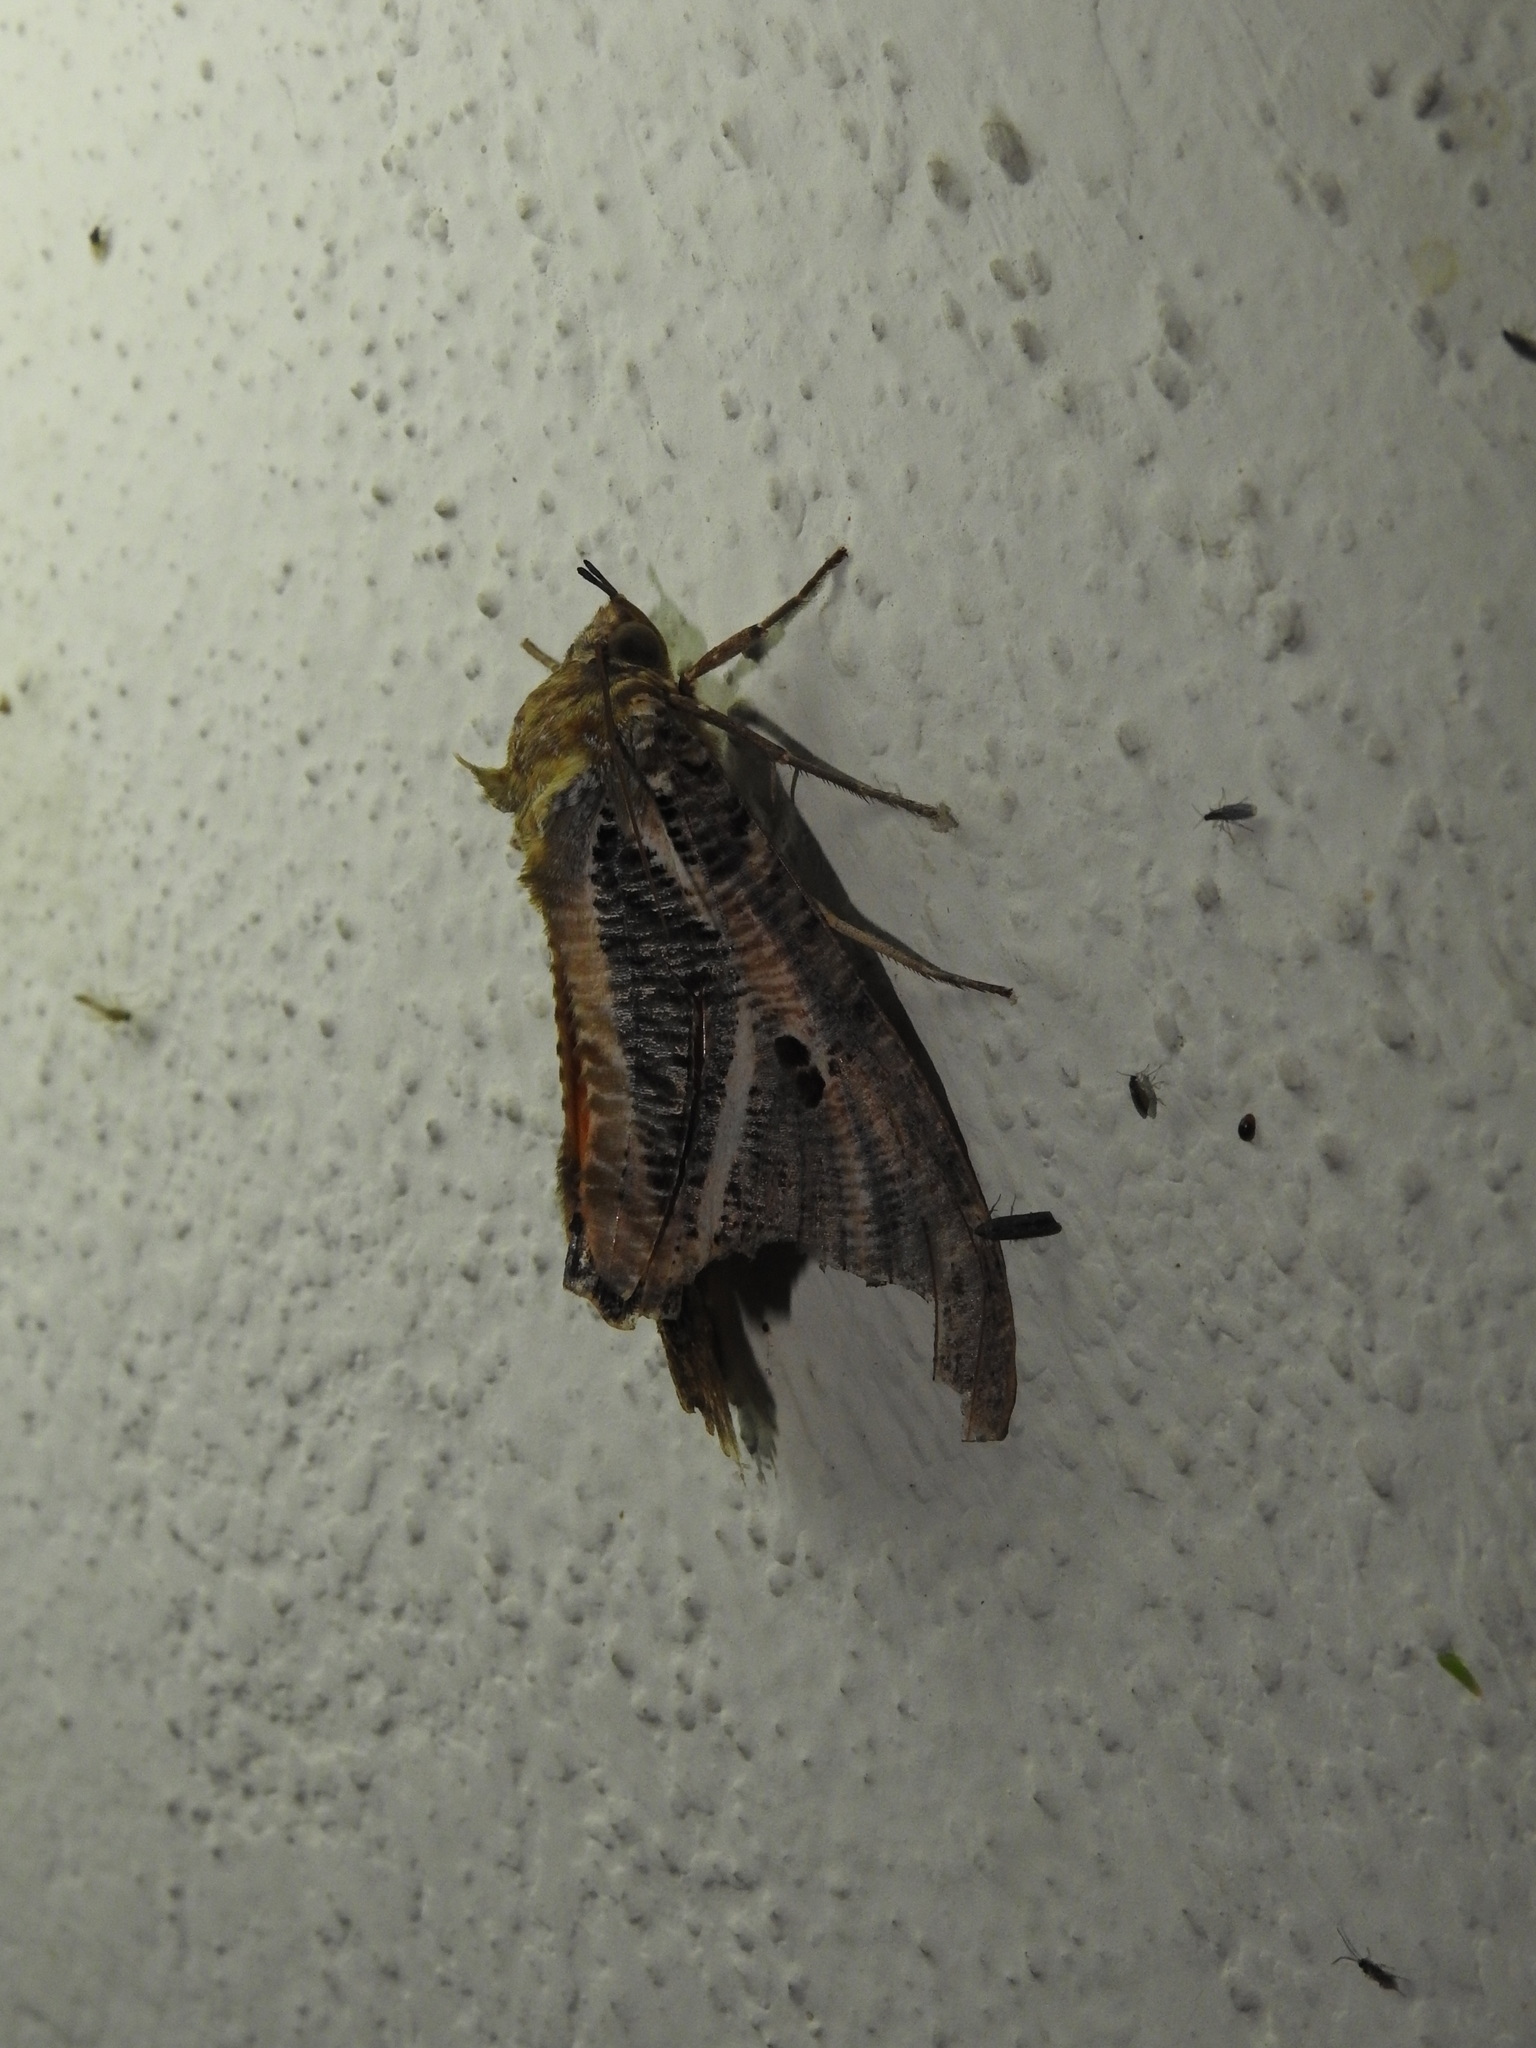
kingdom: Animalia
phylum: Arthropoda
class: Insecta
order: Lepidoptera
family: Erebidae
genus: Eudocima
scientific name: Eudocima materna
